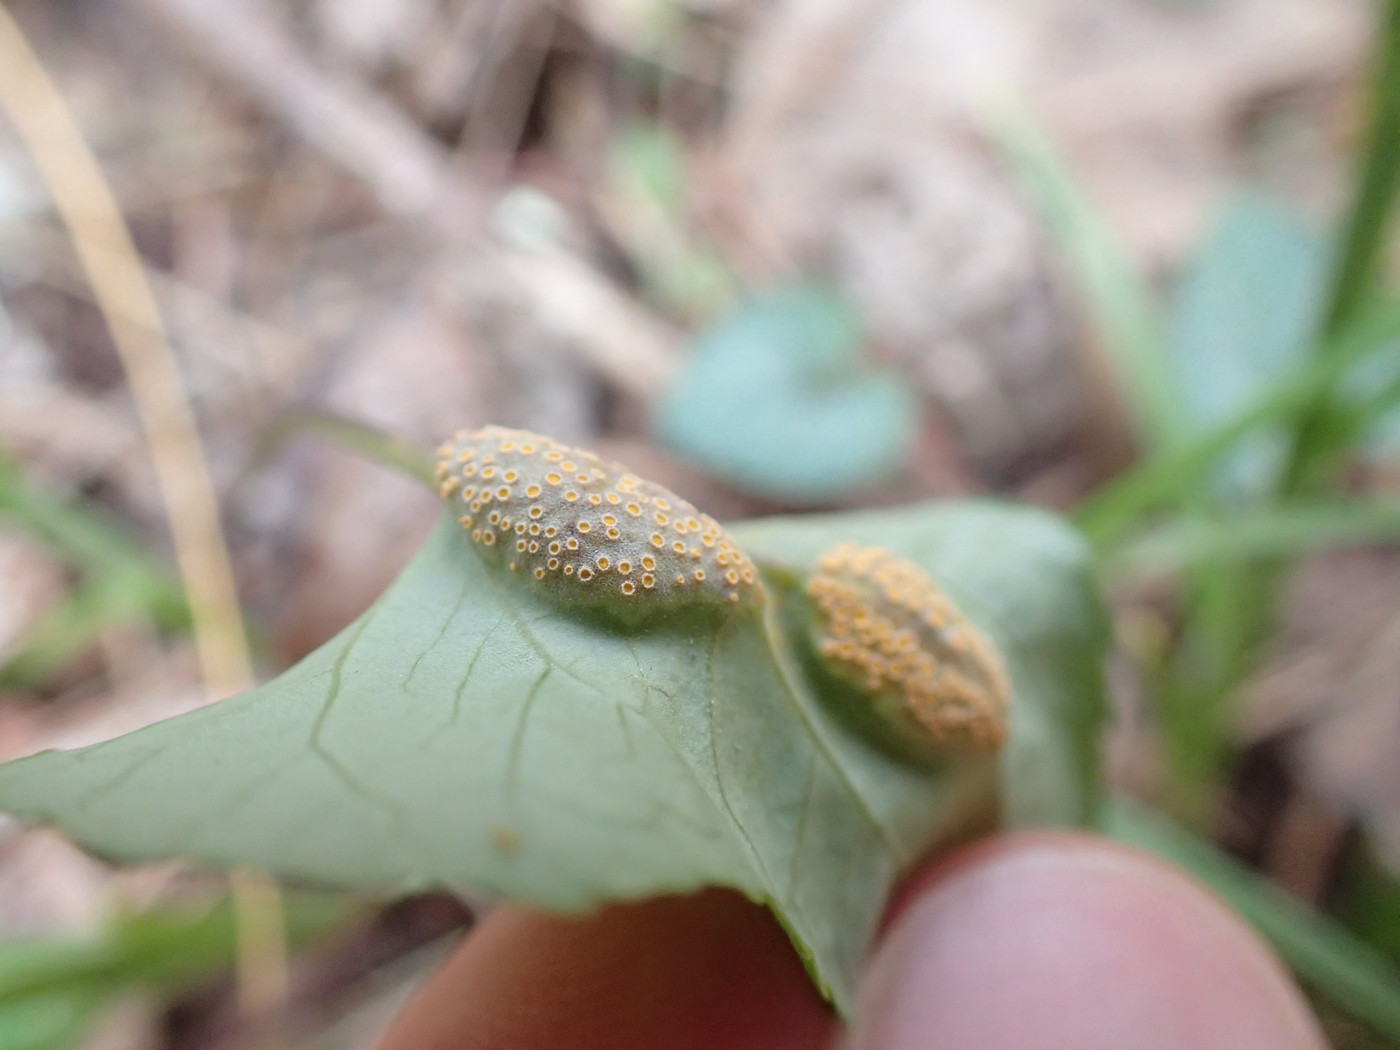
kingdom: Fungi
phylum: Basidiomycota
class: Pucciniomycetes
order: Pucciniales
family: Pucciniaceae
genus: Puccinia
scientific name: Puccinia violae
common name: Violet rust
